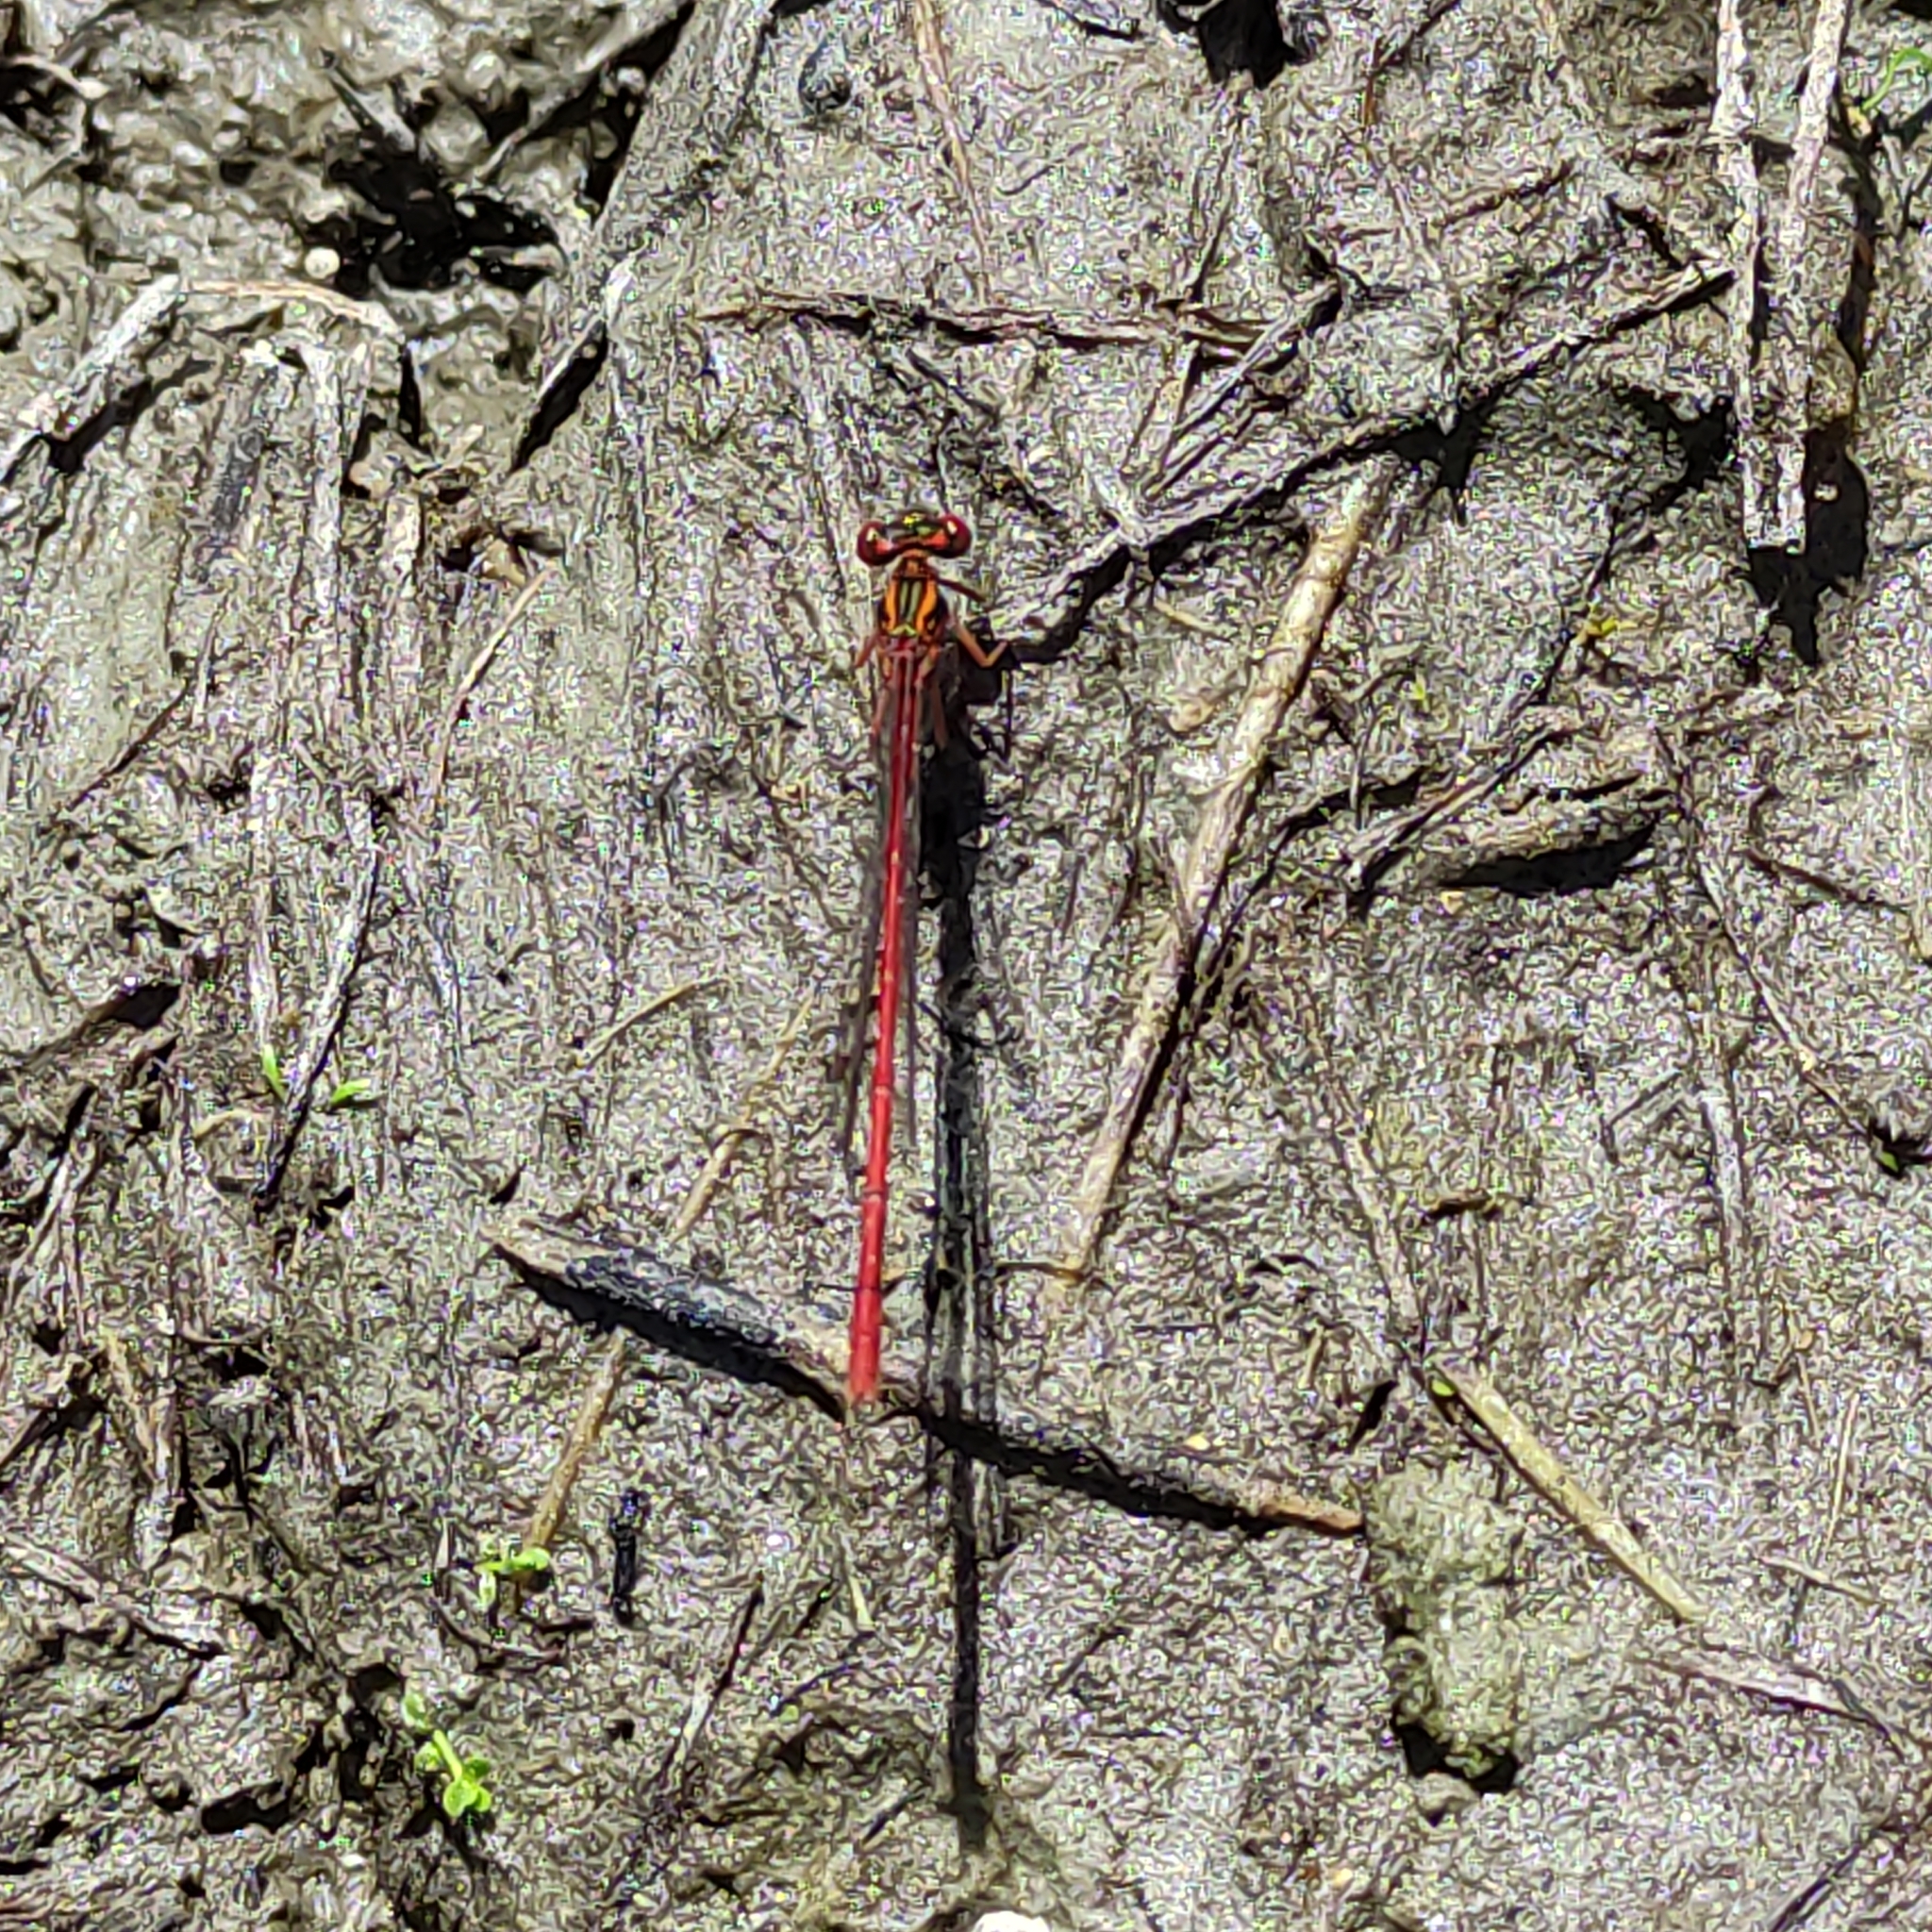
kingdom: Animalia
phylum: Arthropoda
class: Insecta
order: Odonata
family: Coenagrionidae
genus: Xanthocnemis
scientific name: Xanthocnemis zealandica
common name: Common redcoat damselfly
